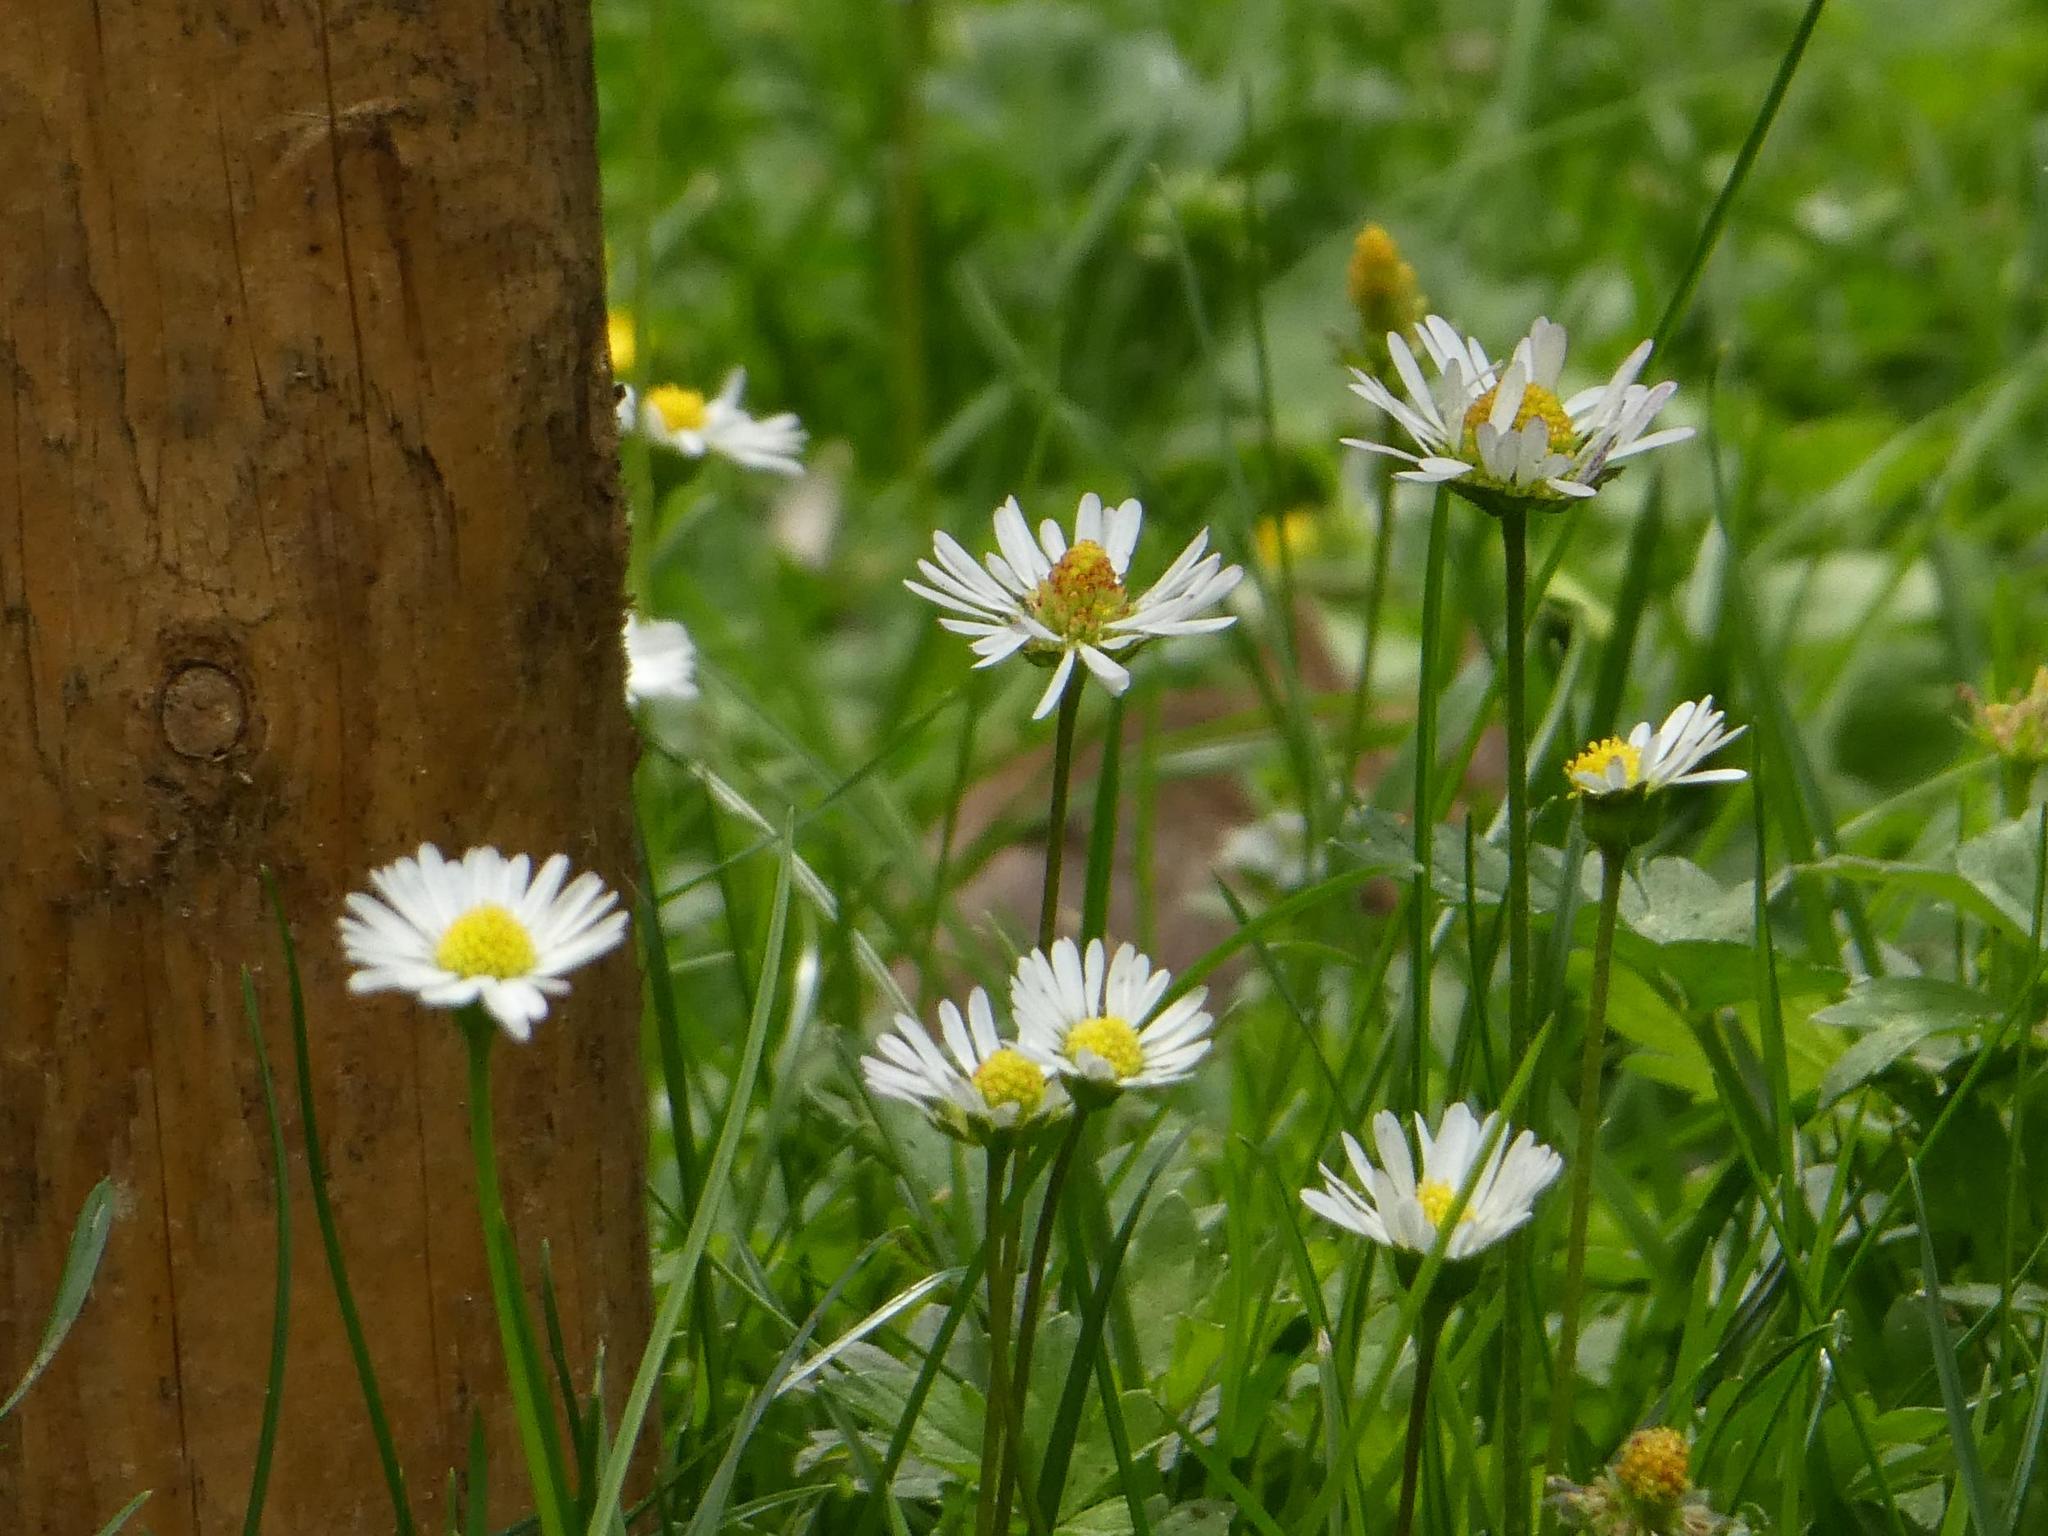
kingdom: Plantae
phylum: Tracheophyta
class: Magnoliopsida
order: Asterales
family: Asteraceae
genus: Bellis
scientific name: Bellis perennis
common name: Lawndaisy
